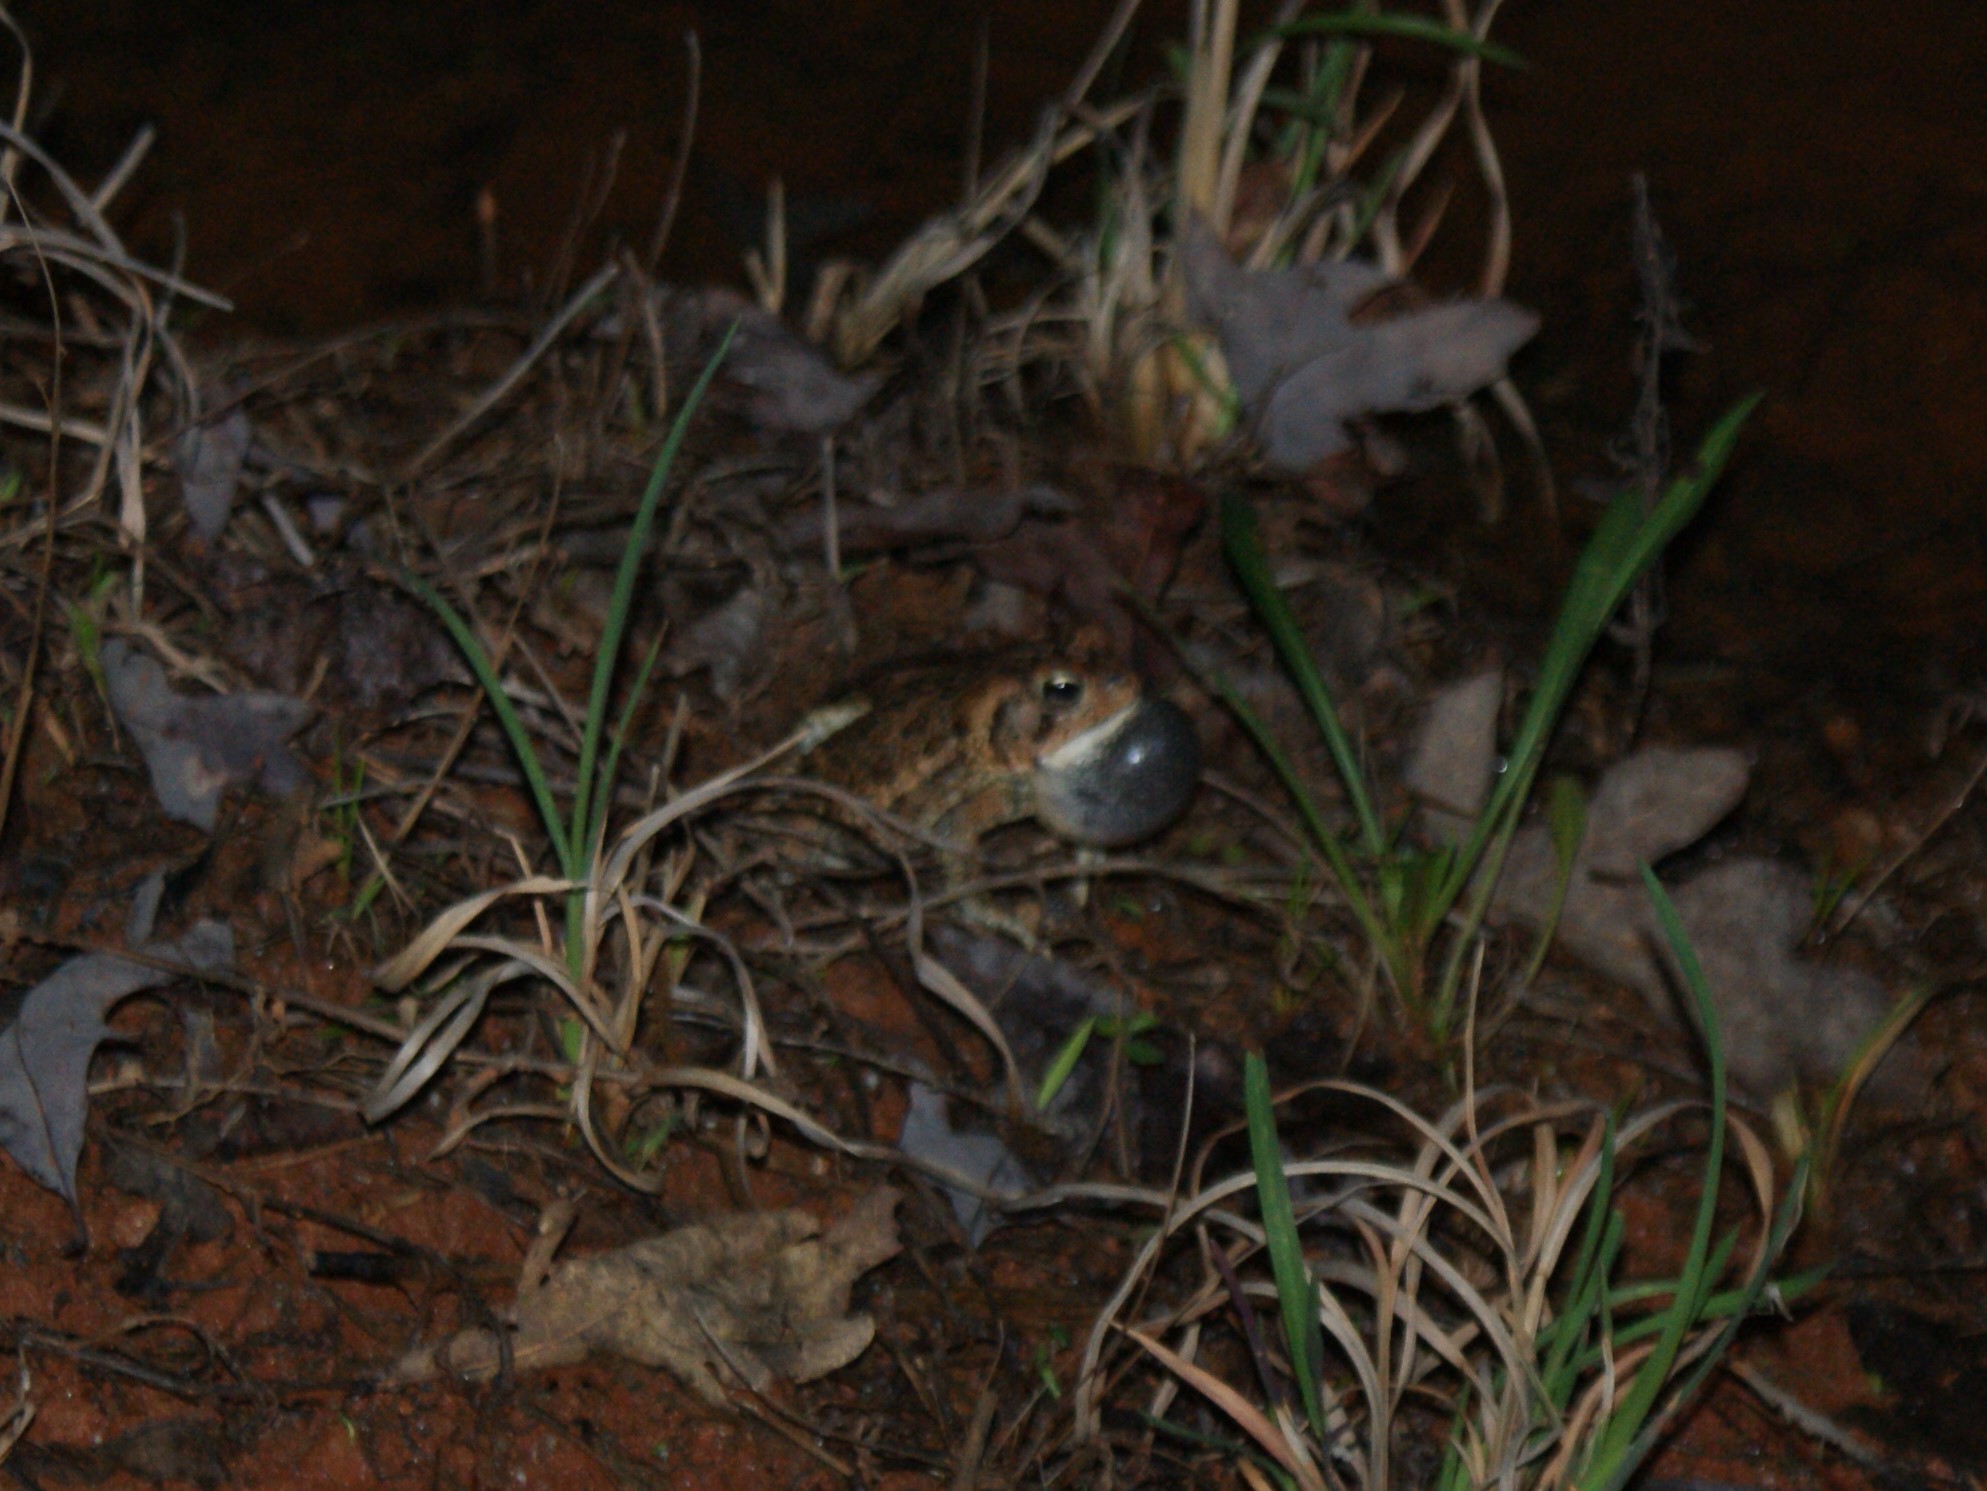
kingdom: Animalia
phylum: Chordata
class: Amphibia
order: Anura
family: Bufonidae
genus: Anaxyrus
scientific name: Anaxyrus fowleri
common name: Fowler's toad
